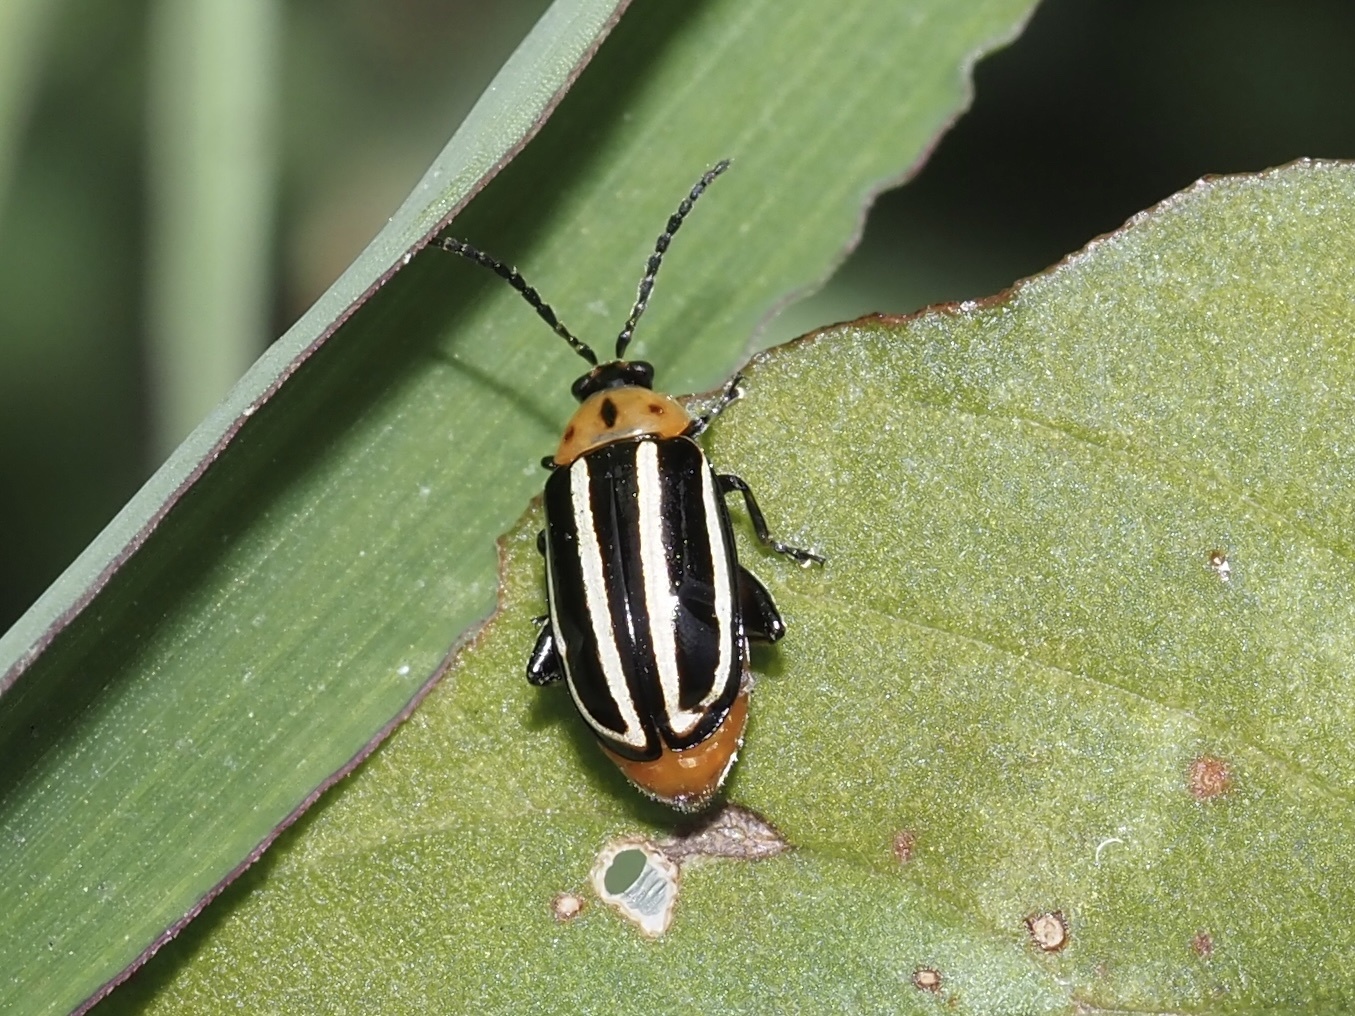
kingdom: Animalia
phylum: Arthropoda
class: Insecta
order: Coleoptera
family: Chrysomelidae
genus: Disonycha
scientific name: Disonycha glabrata
